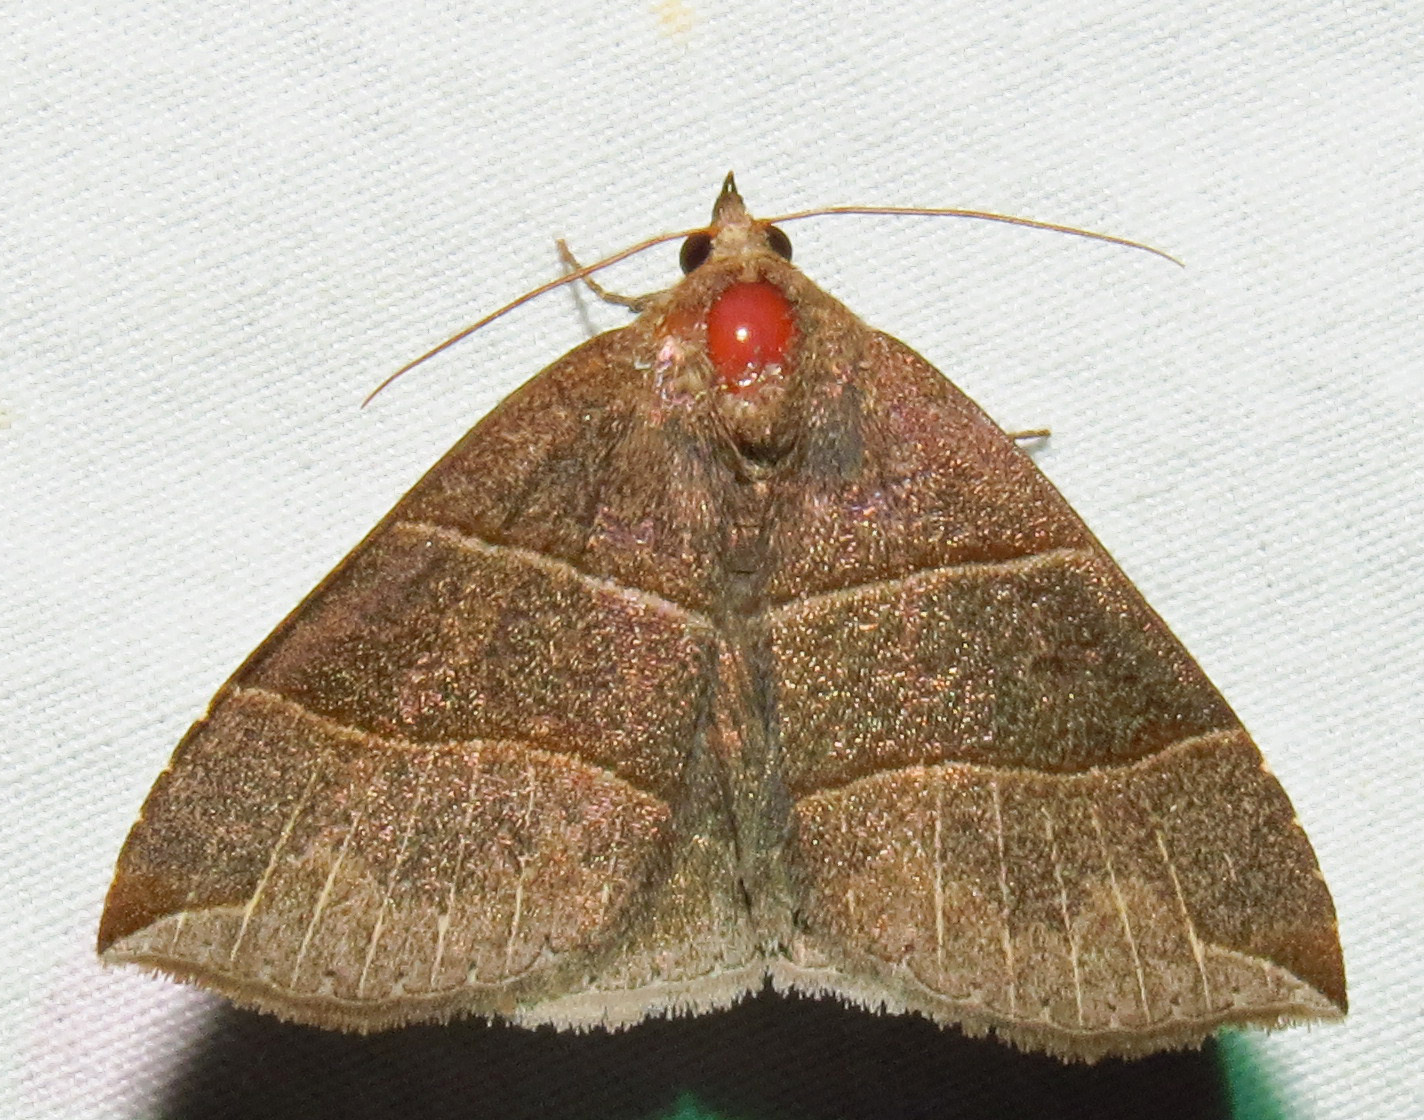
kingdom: Animalia
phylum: Arthropoda
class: Insecta
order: Lepidoptera
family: Erebidae
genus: Parallelia
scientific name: Parallelia bistriaris
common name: Maple looper moth
